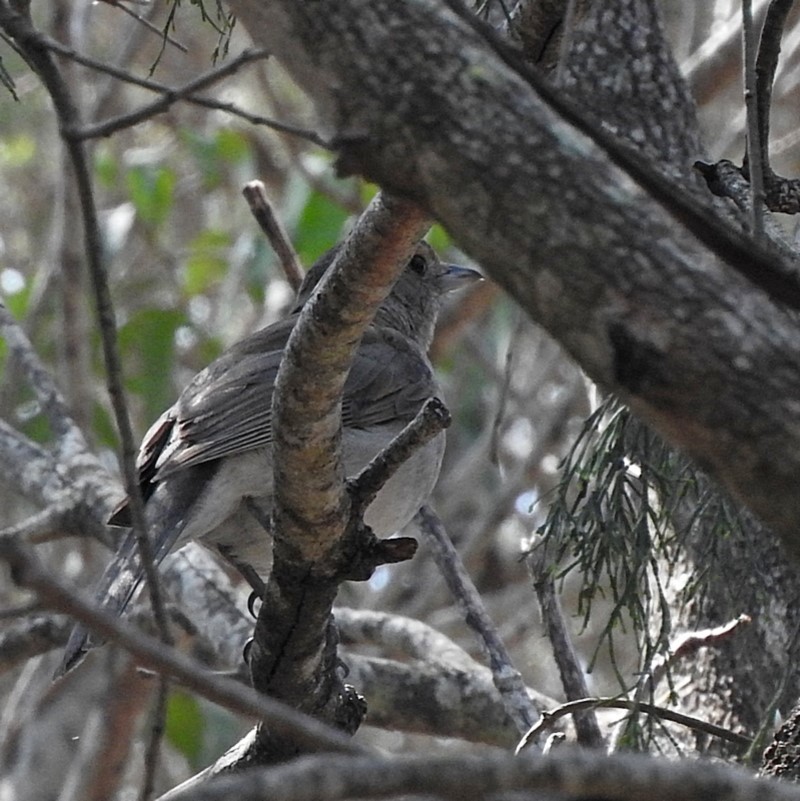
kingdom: Animalia
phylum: Chordata
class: Aves
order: Passeriformes
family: Pachycephalidae
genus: Colluricincla
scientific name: Colluricincla harmonica
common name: Grey shrikethrush
